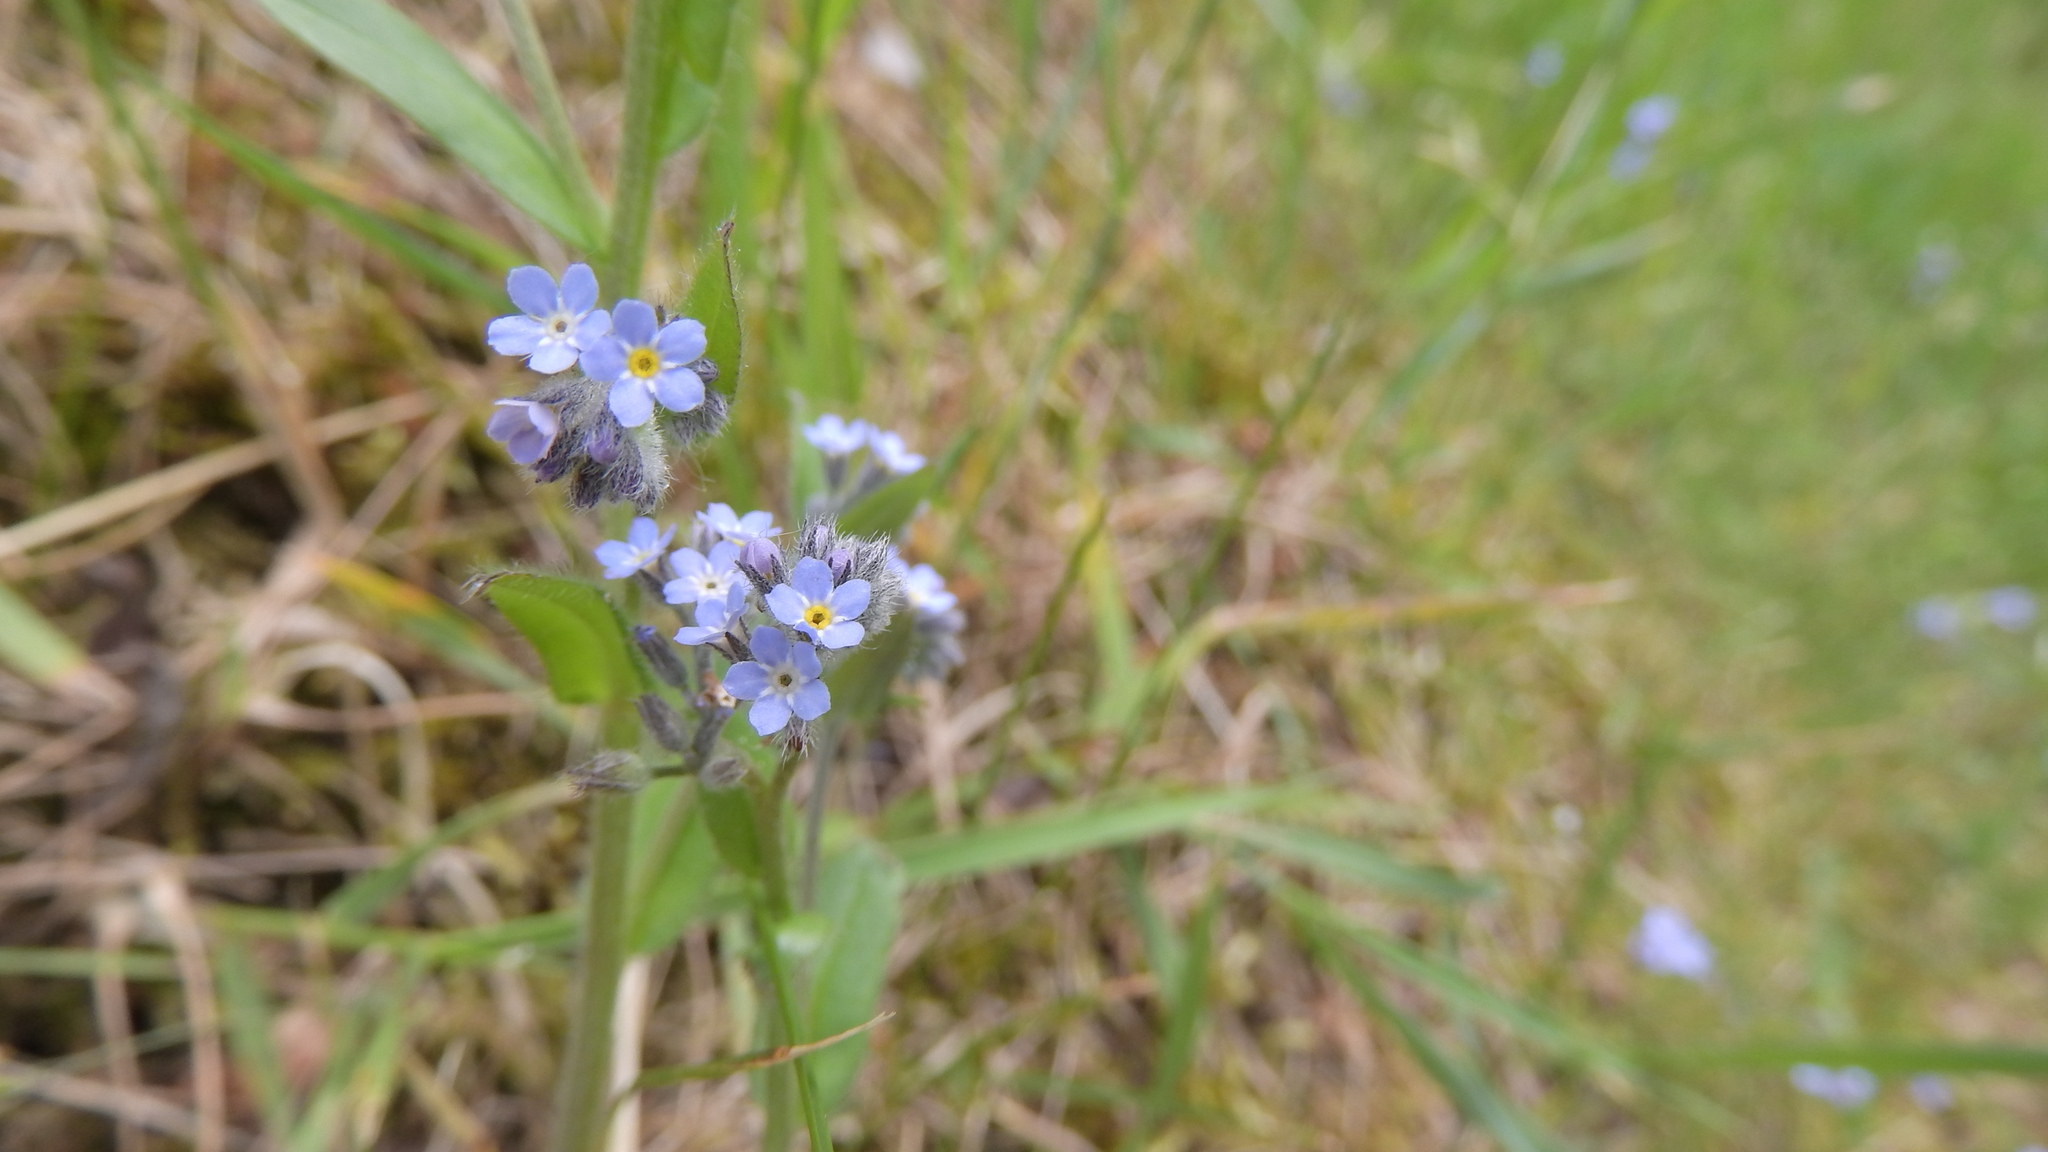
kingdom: Plantae
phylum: Tracheophyta
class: Magnoliopsida
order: Boraginales
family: Boraginaceae
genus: Myosotis
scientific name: Myosotis arvensis
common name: Field forget-me-not
